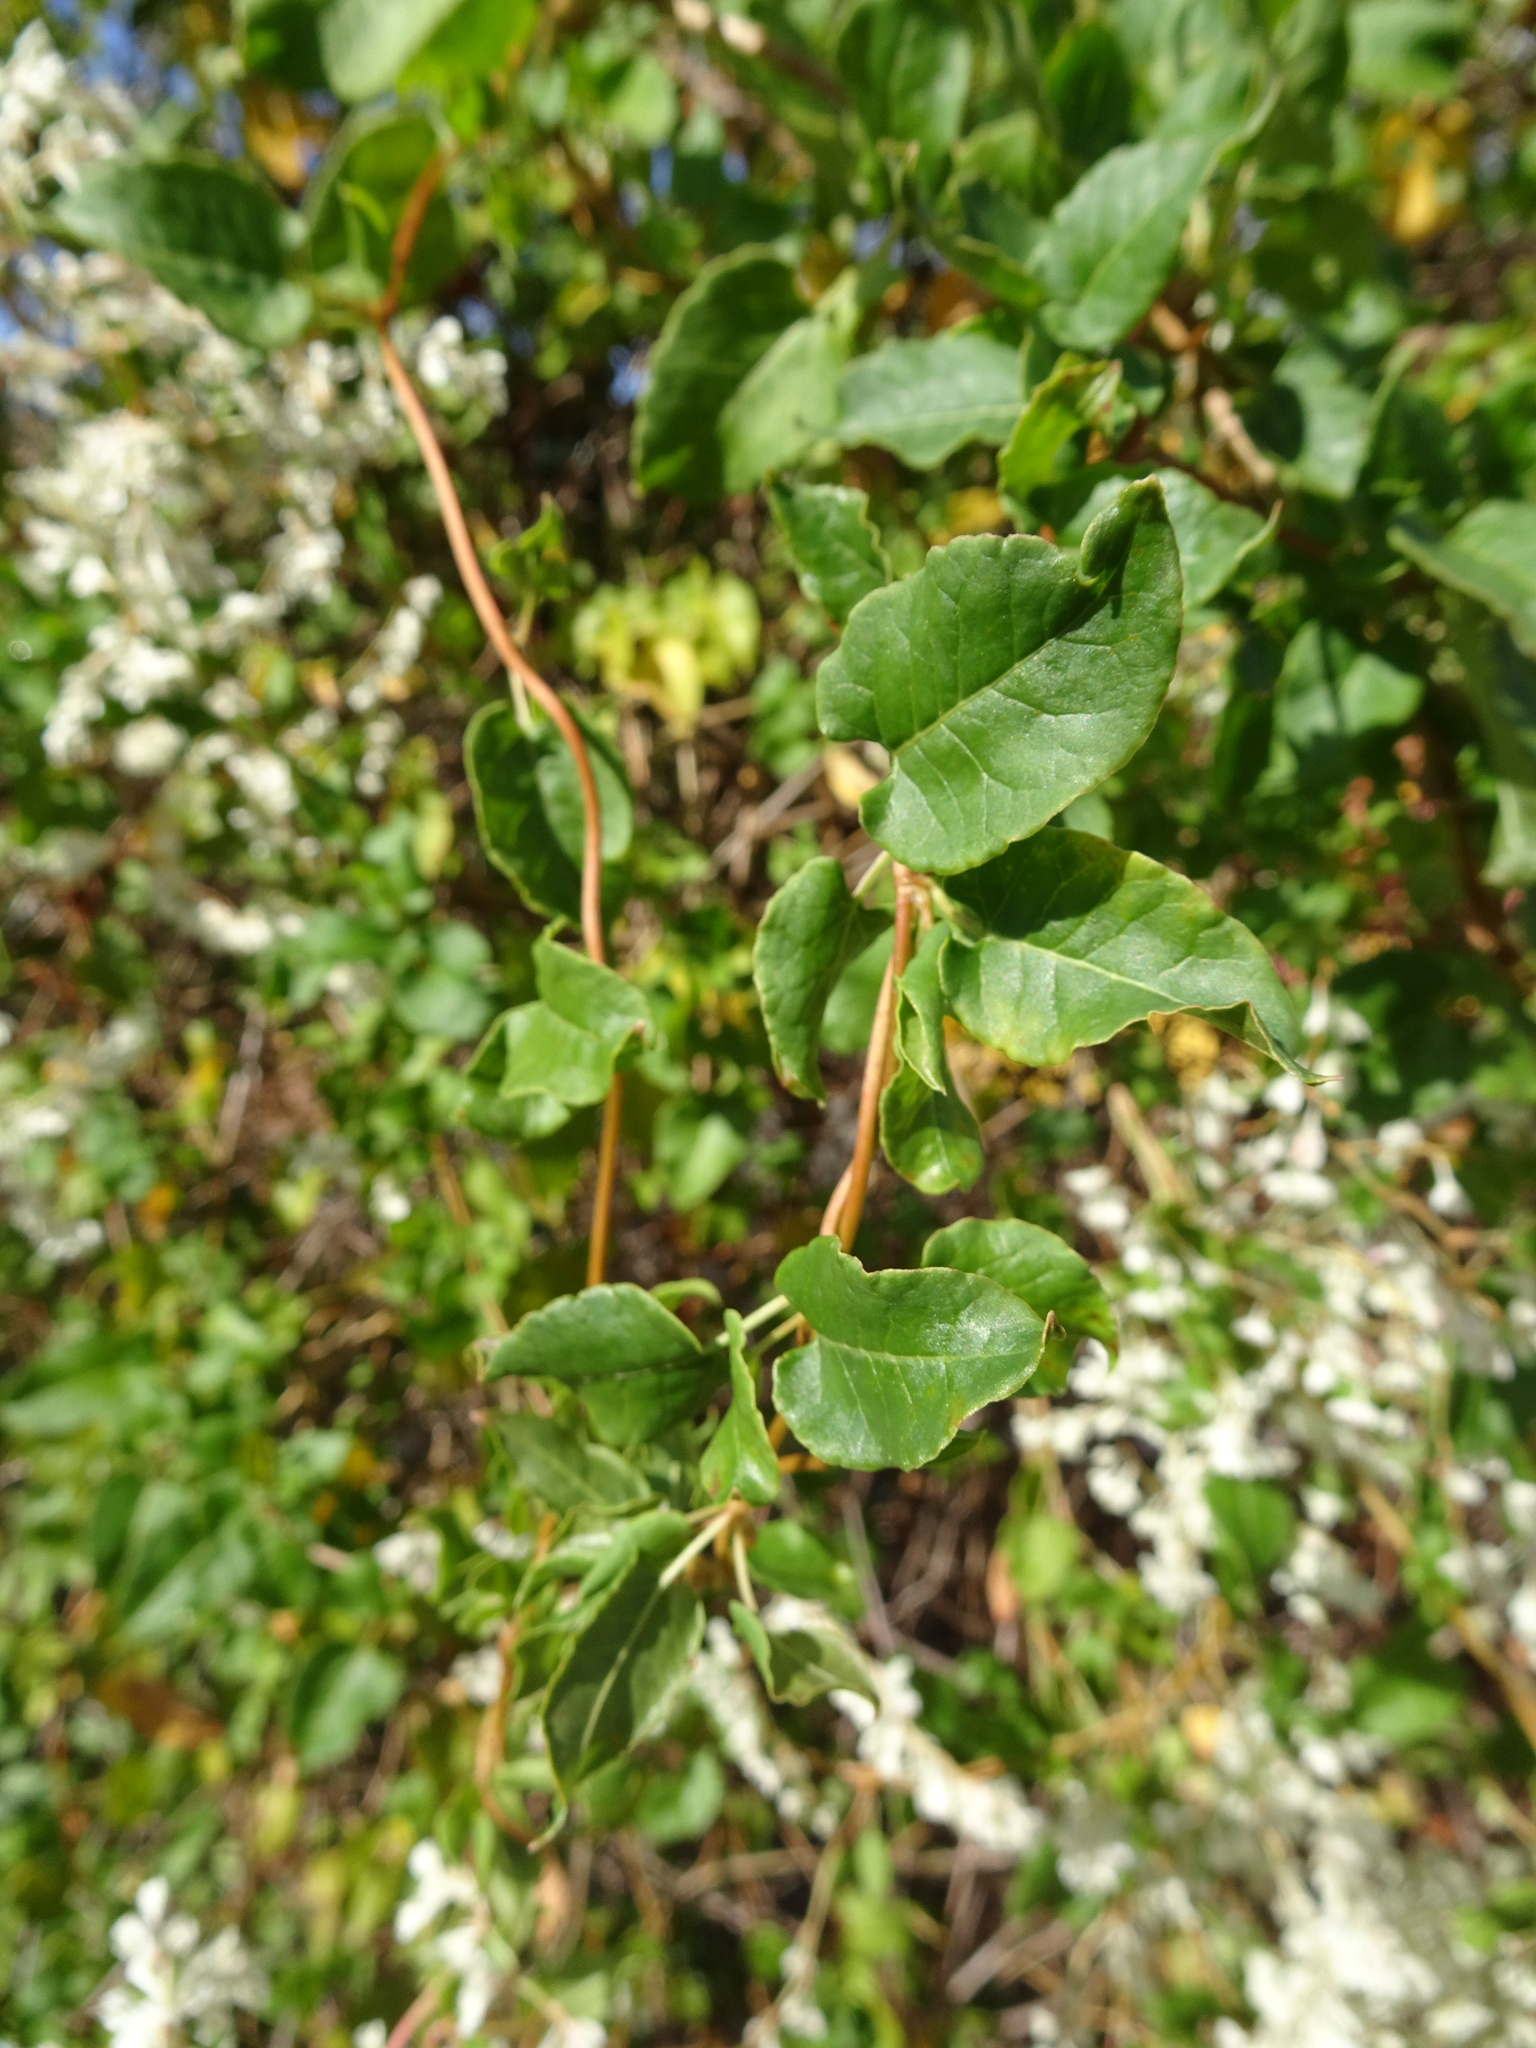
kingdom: Plantae
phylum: Tracheophyta
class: Magnoliopsida
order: Caryophyllales
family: Polygonaceae
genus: Fallopia
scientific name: Fallopia baldschuanica
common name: Russian-vine
